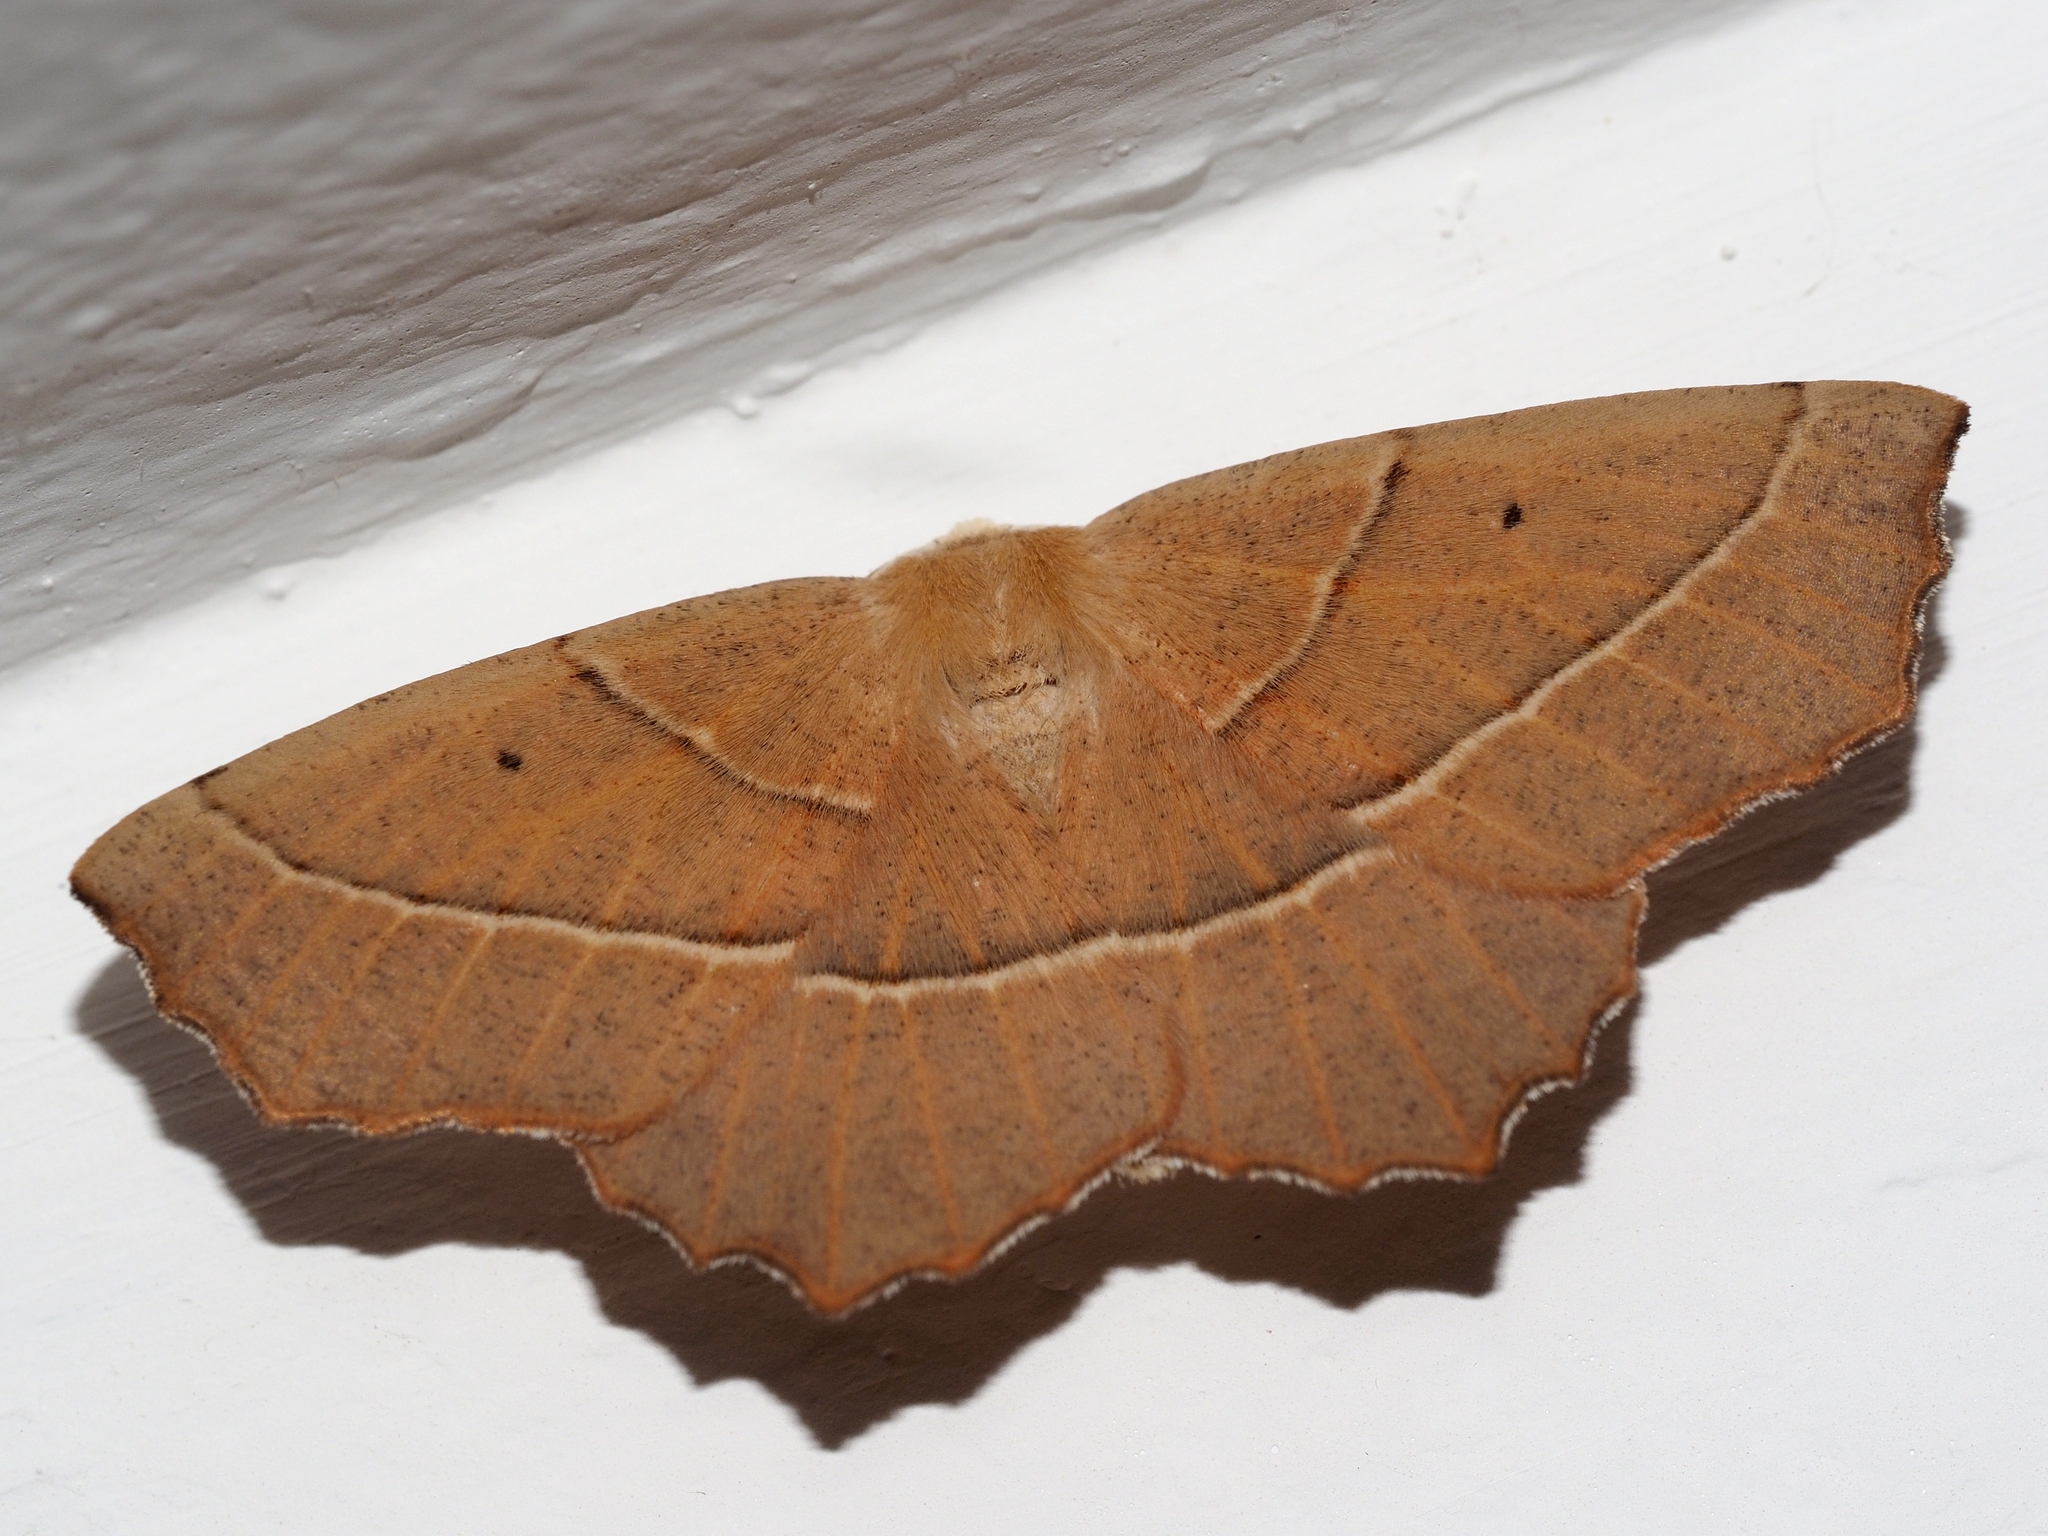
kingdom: Animalia
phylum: Arthropoda
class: Insecta
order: Lepidoptera
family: Geometridae
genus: Gerinia
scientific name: Gerinia honoraria
